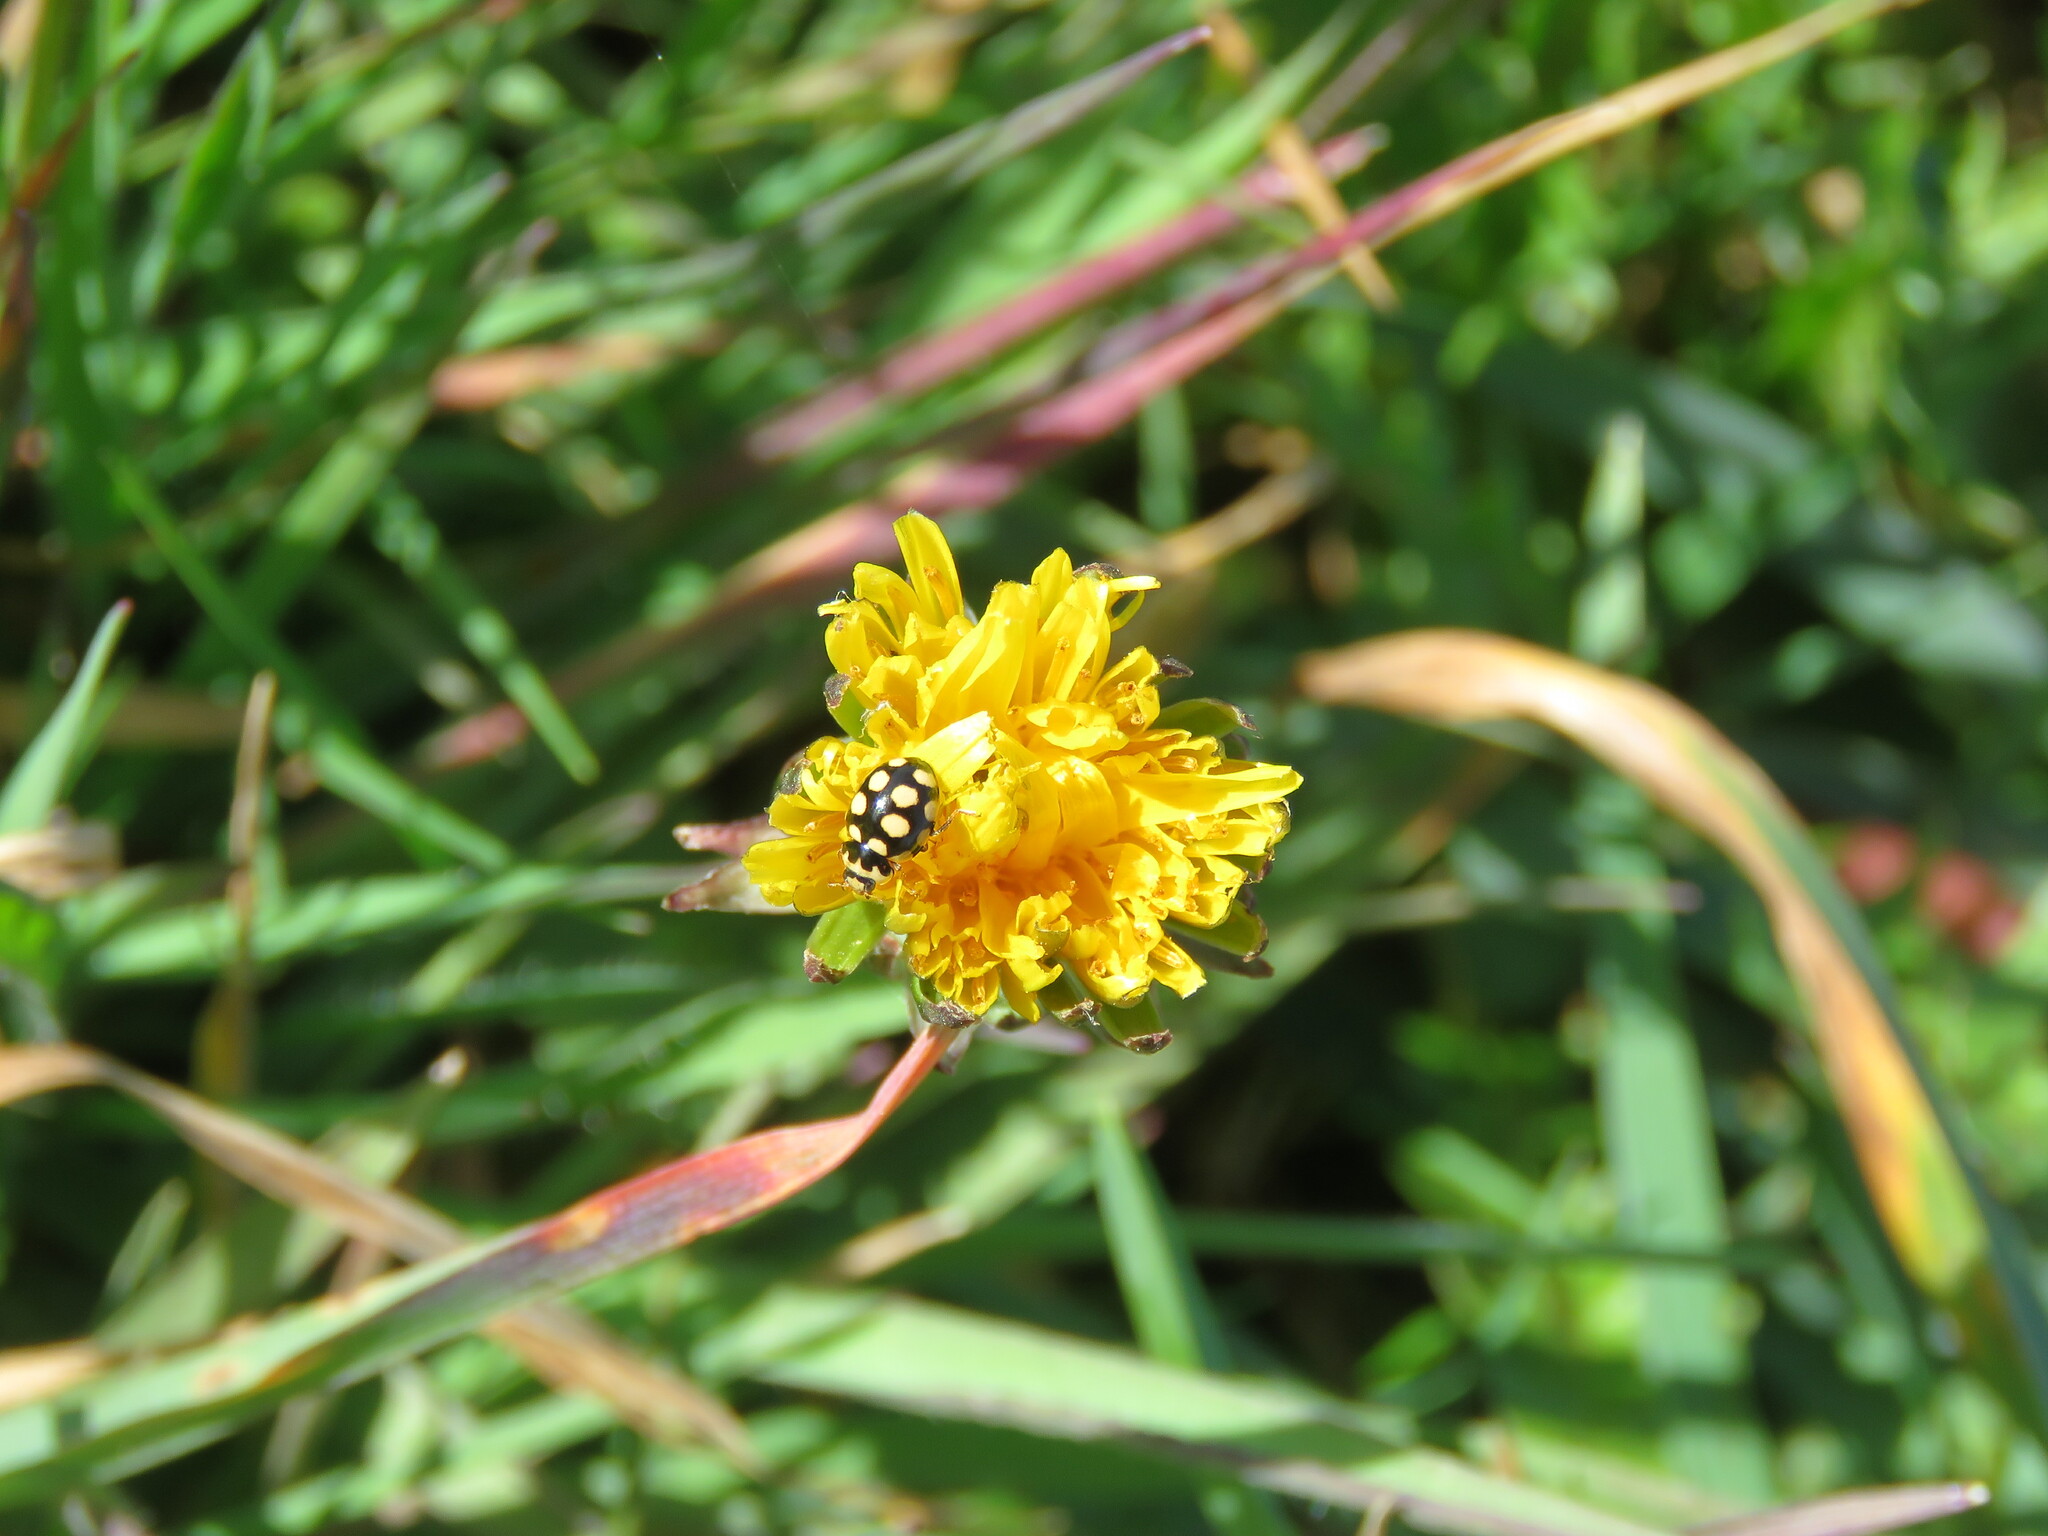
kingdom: Animalia
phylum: Arthropoda
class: Insecta
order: Coleoptera
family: Coccinellidae
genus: Coccinula
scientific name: Coccinula quatuordecimpustulata
